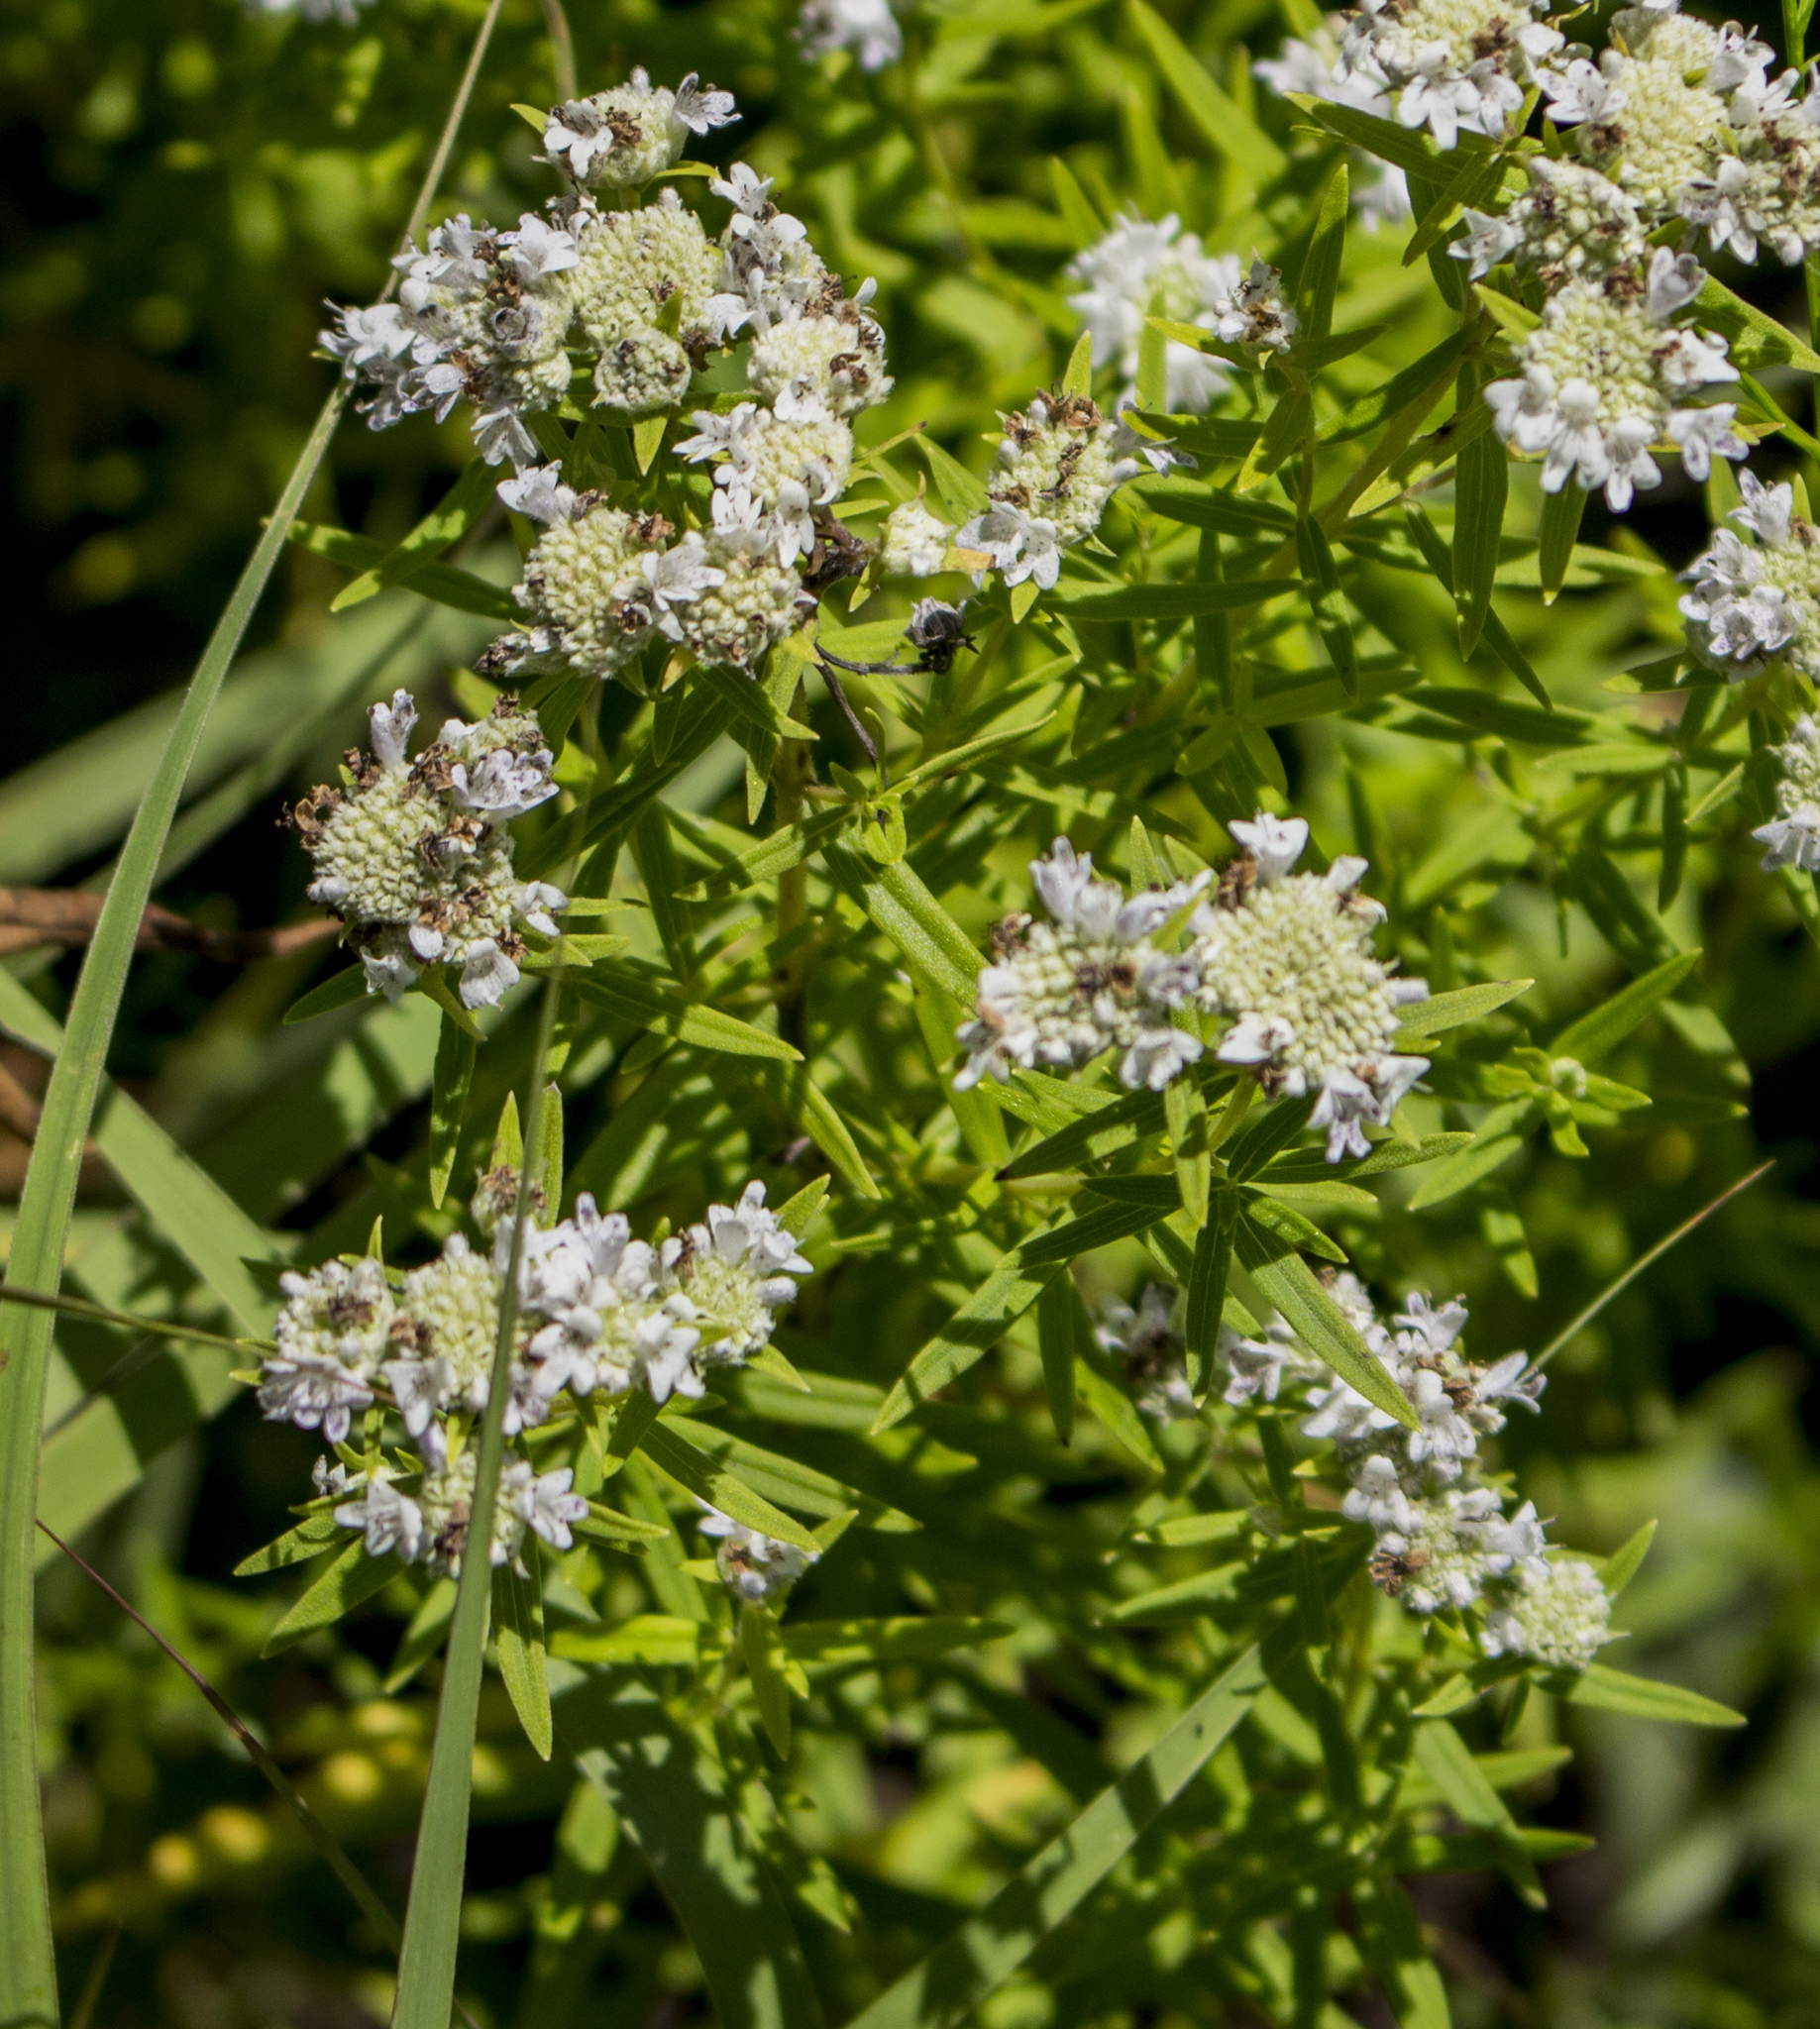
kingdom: Plantae
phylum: Tracheophyta
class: Magnoliopsida
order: Lamiales
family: Lamiaceae
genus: Pycnanthemum
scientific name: Pycnanthemum virginianum
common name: Virginia mountain-mint
